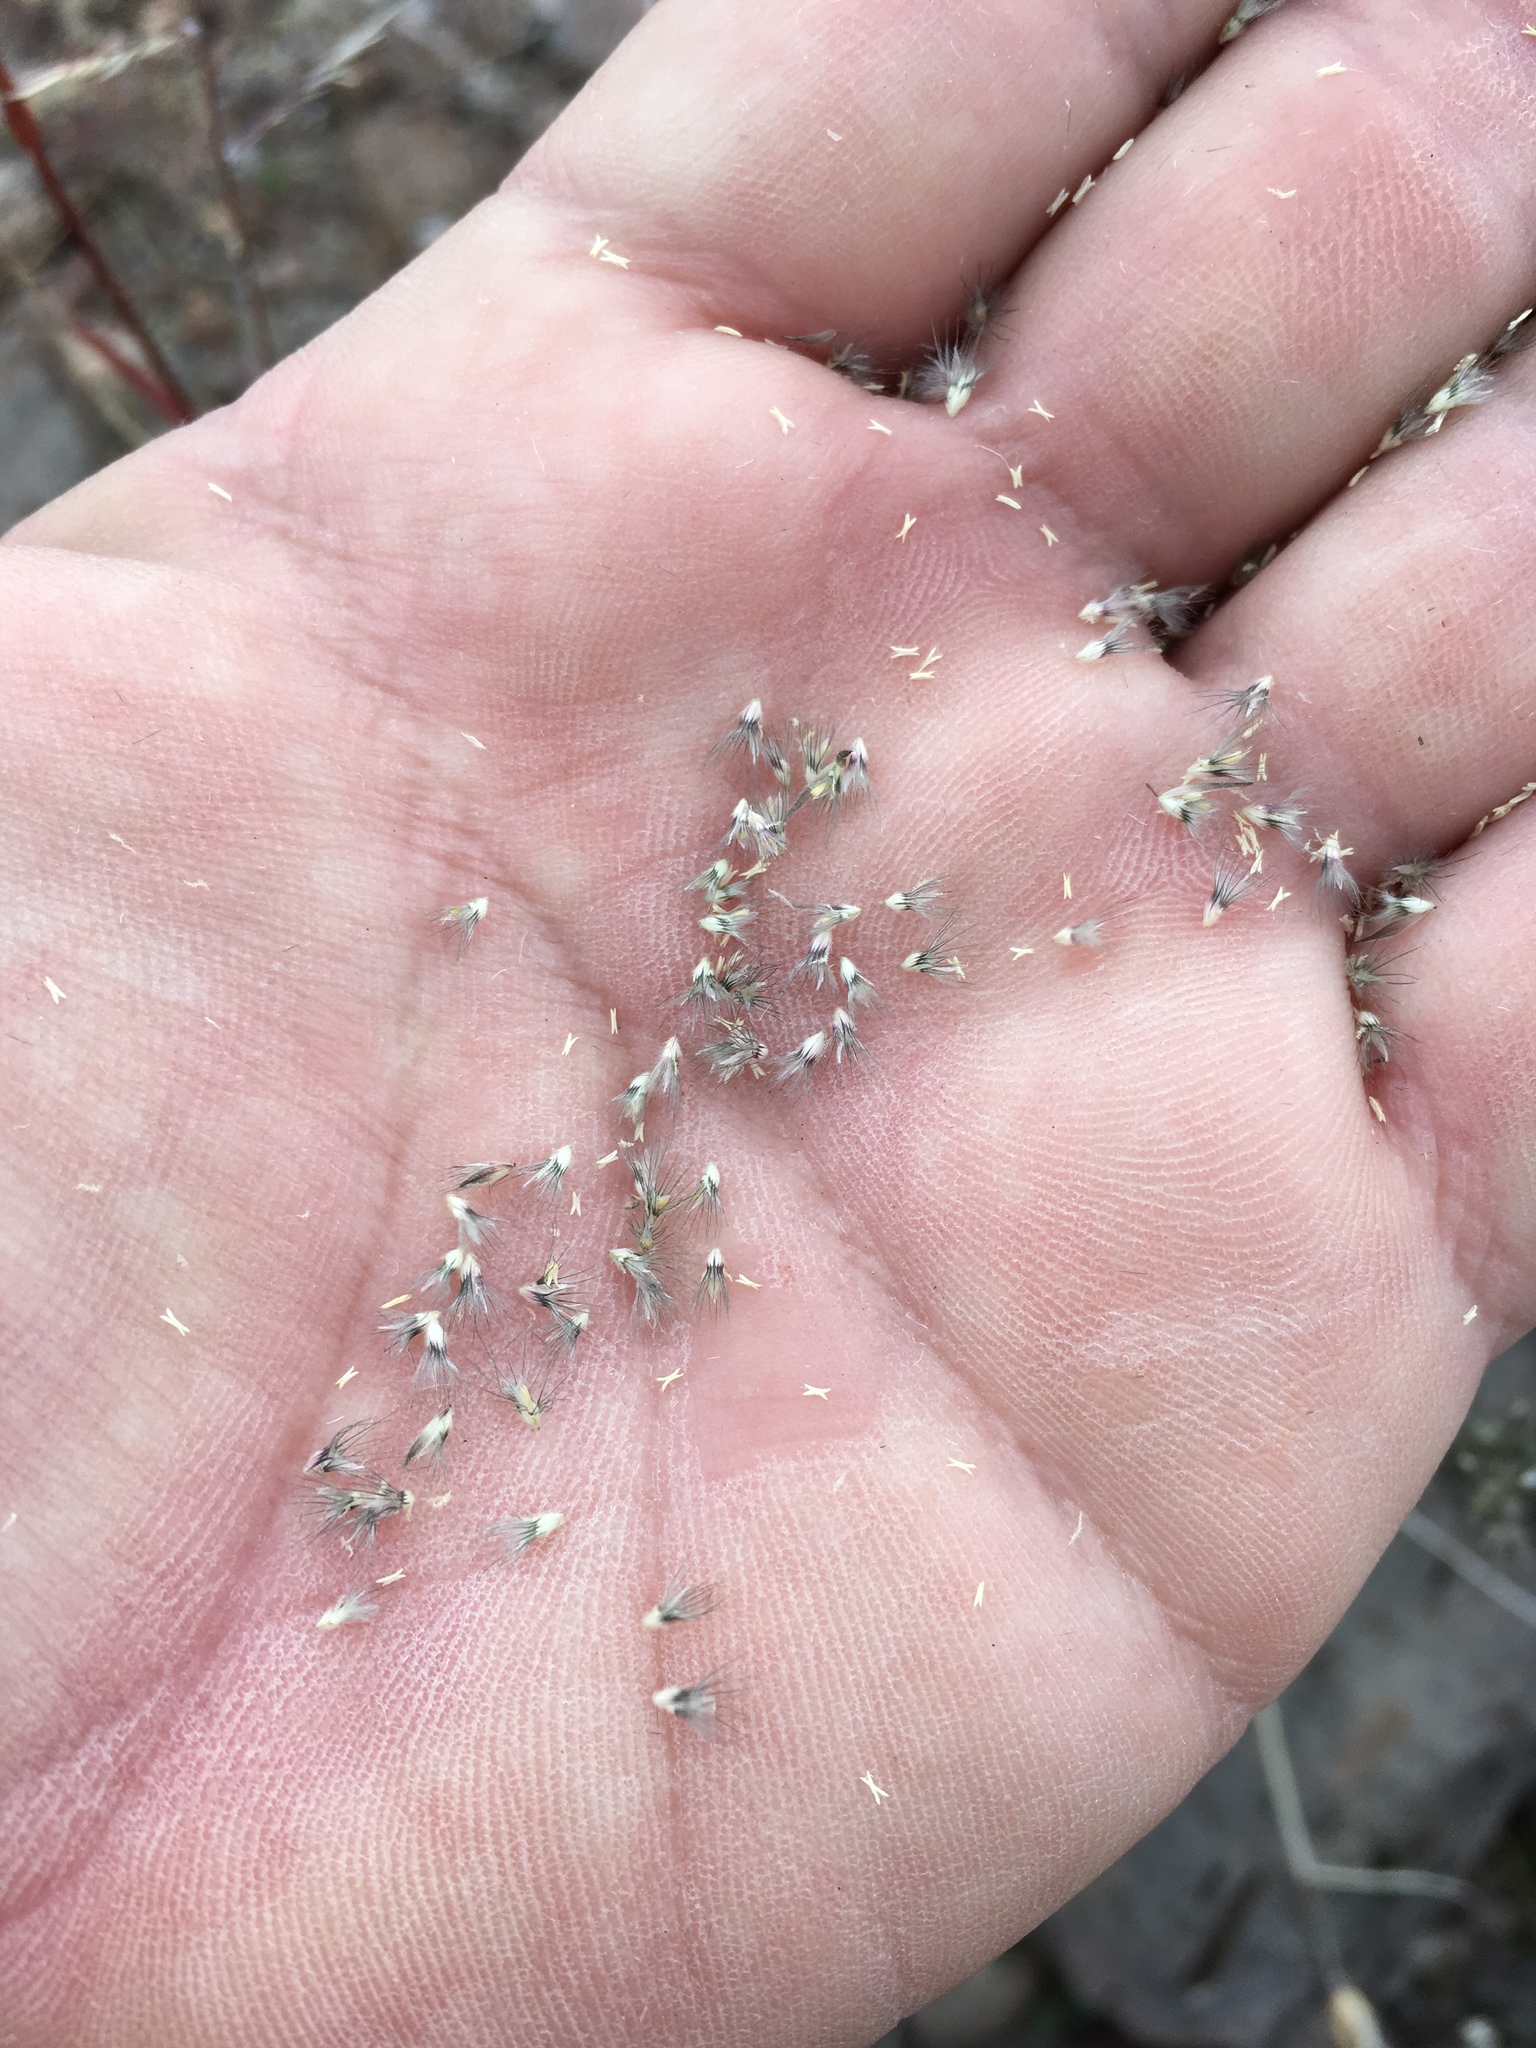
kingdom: Plantae
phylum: Tracheophyta
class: Liliopsida
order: Poales
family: Poaceae
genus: Enneapogon
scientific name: Enneapogon desvauxii
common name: Feather pappus grass
